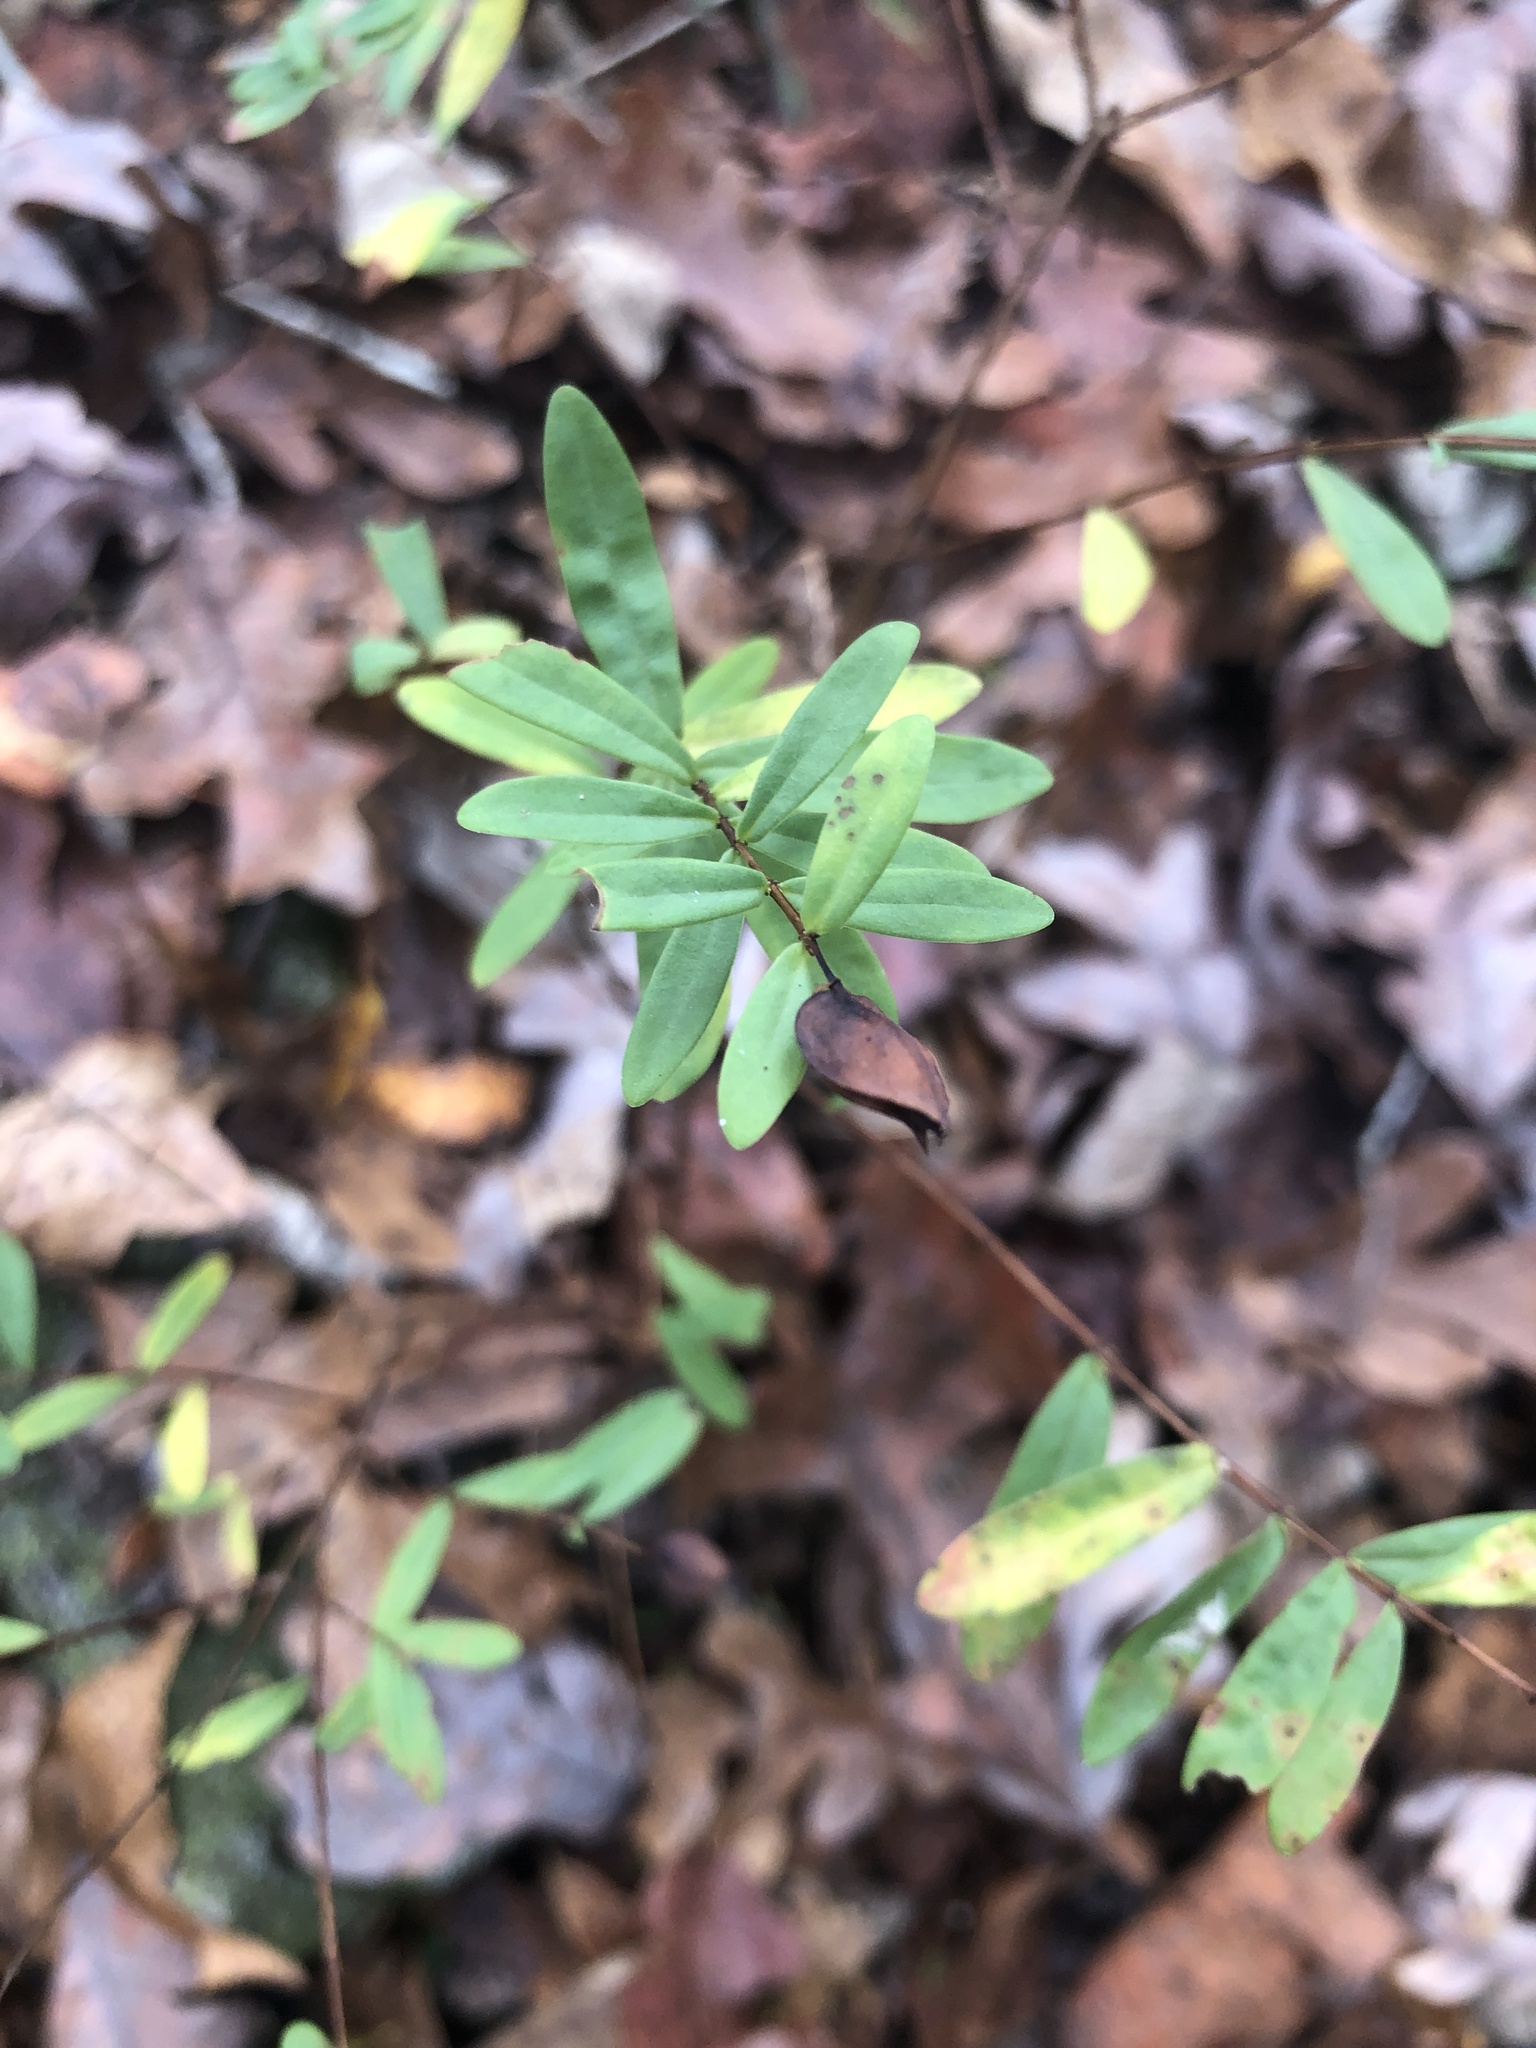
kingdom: Plantae
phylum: Tracheophyta
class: Magnoliopsida
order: Malpighiales
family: Hypericaceae
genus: Hypericum
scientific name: Hypericum hypericoides
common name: St. andrew's cross
